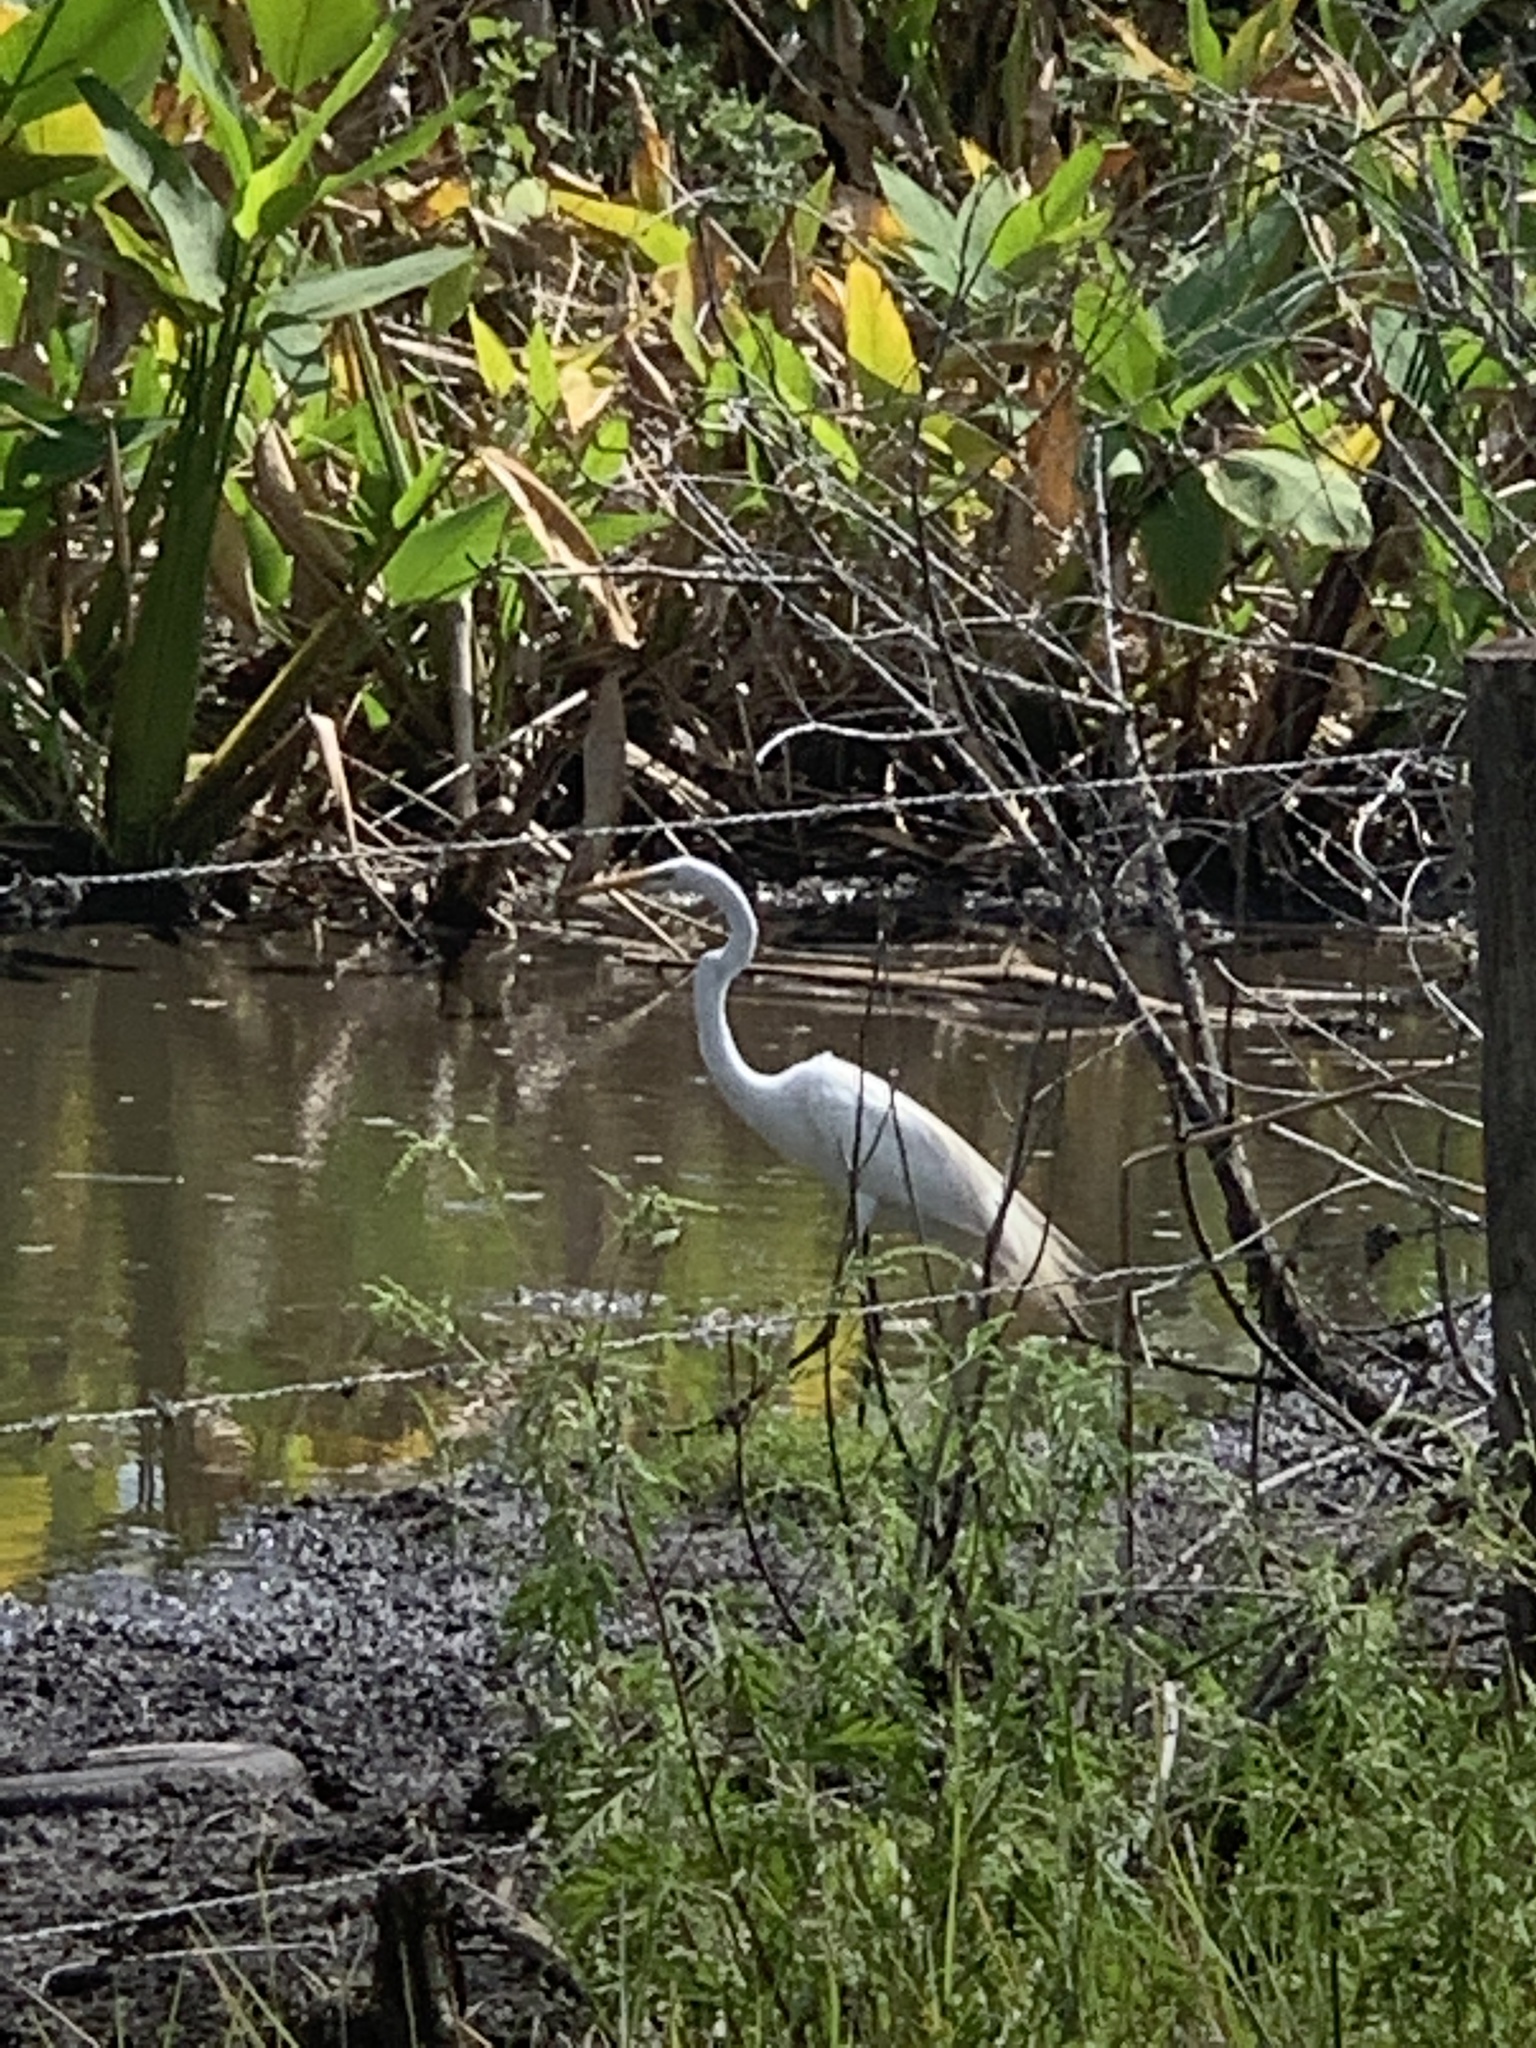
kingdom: Animalia
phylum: Chordata
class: Aves
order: Pelecaniformes
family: Ardeidae
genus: Ardea
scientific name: Ardea alba
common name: Great egret
